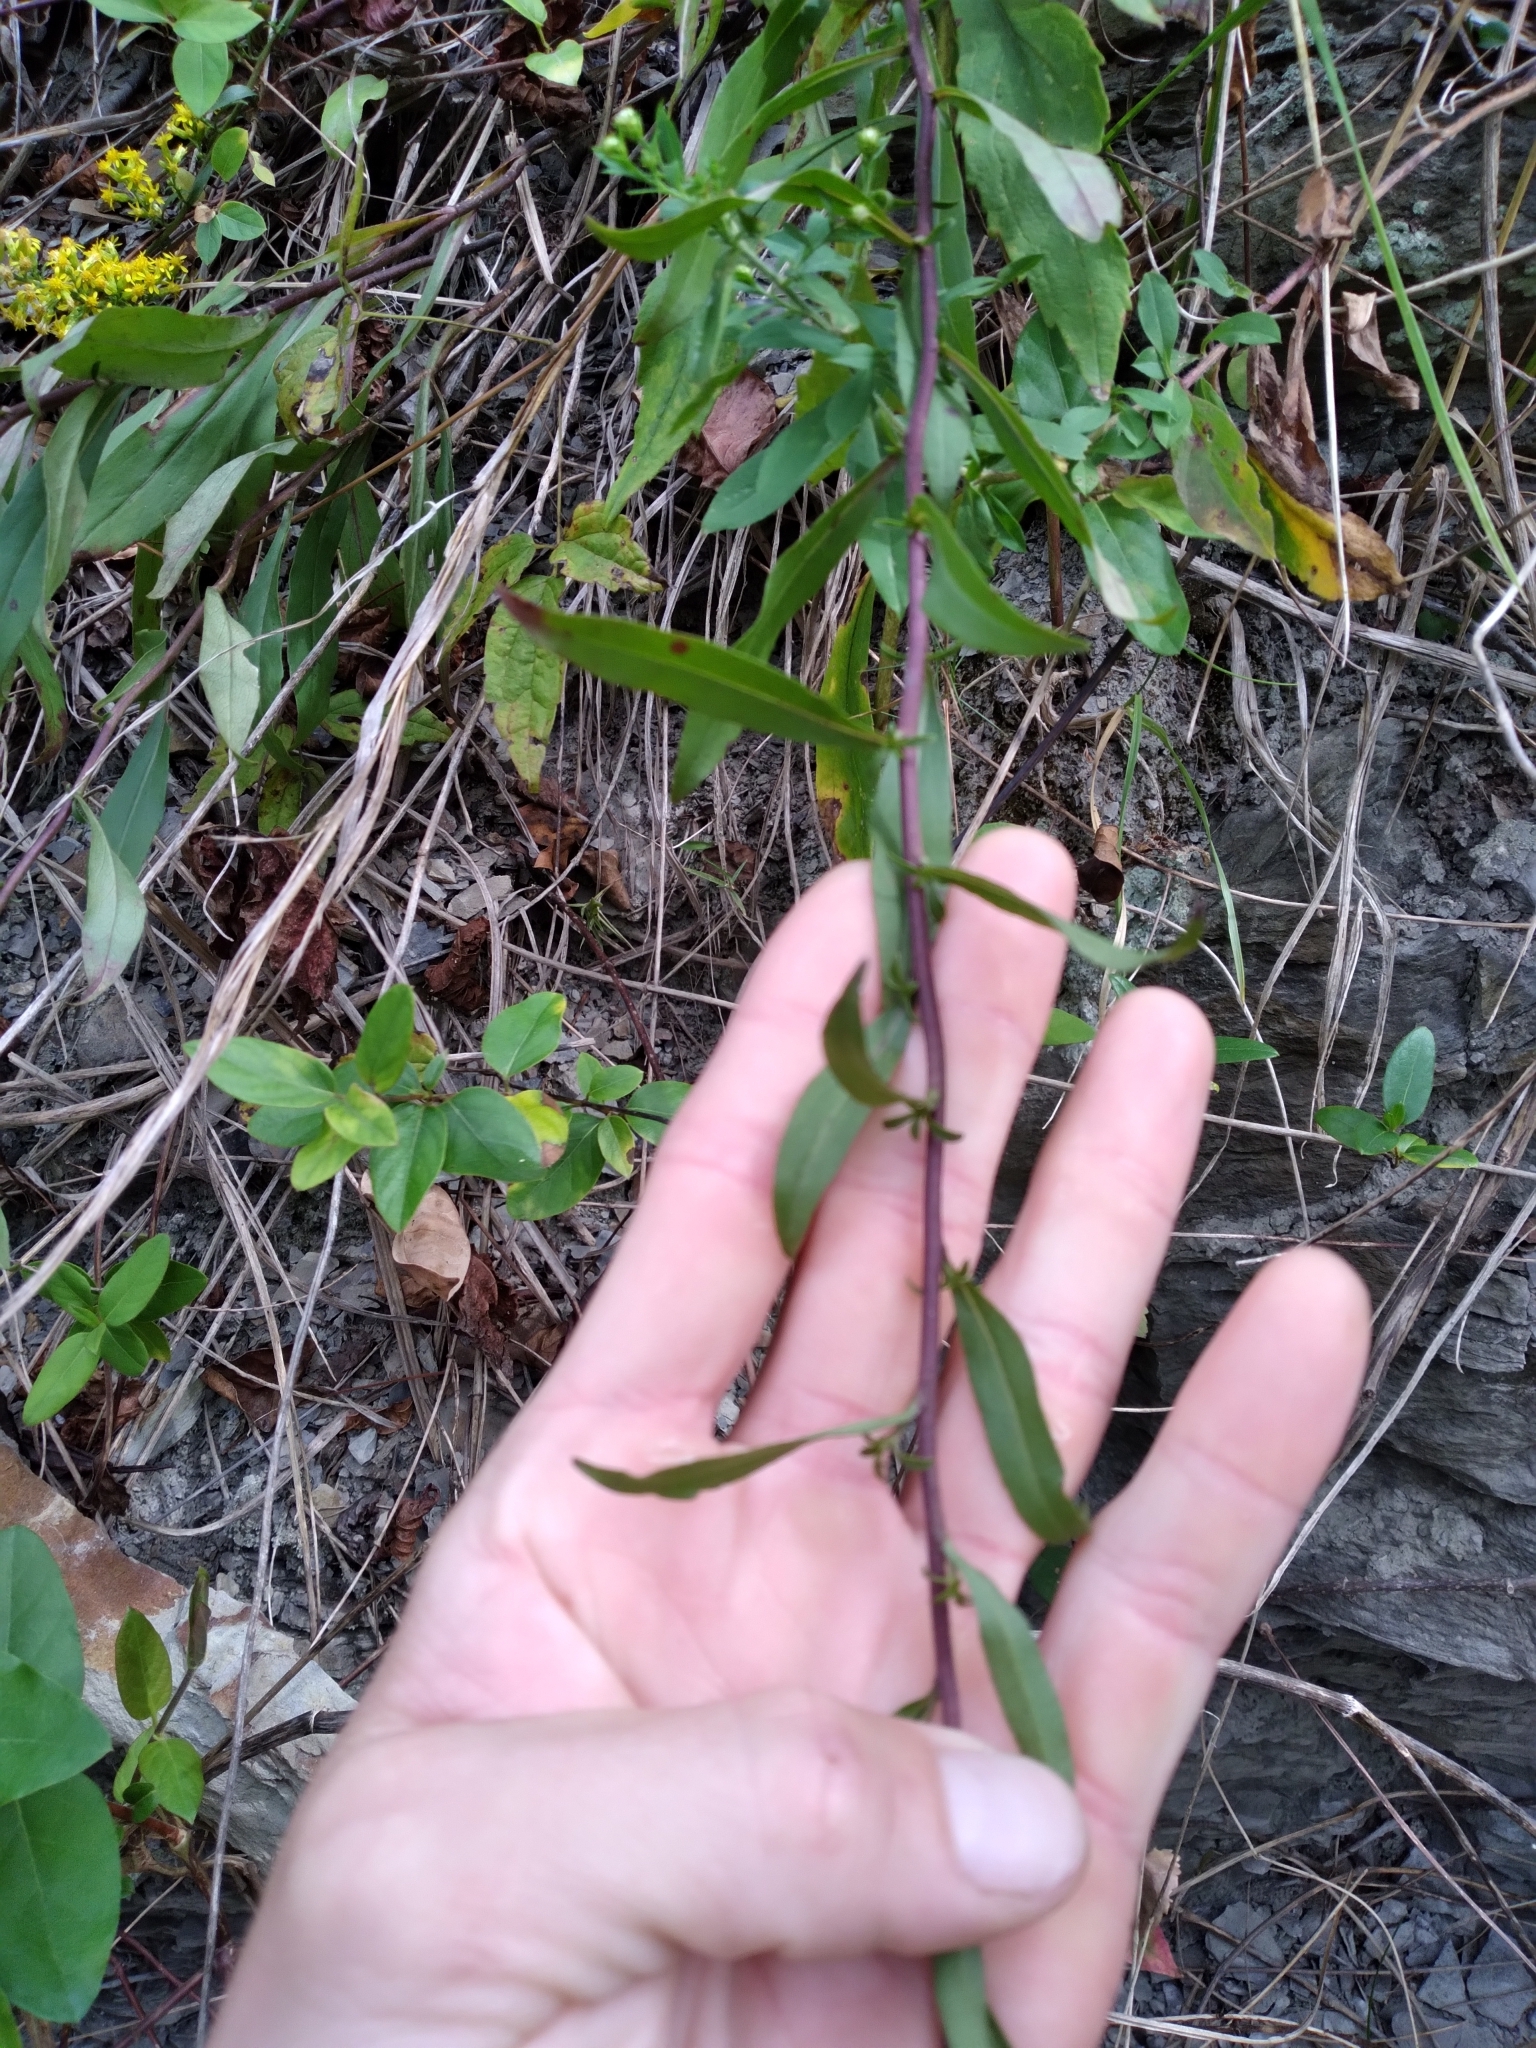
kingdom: Plantae
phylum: Tracheophyta
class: Magnoliopsida
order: Asterales
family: Asteraceae
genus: Solidago
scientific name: Solidago erecta
